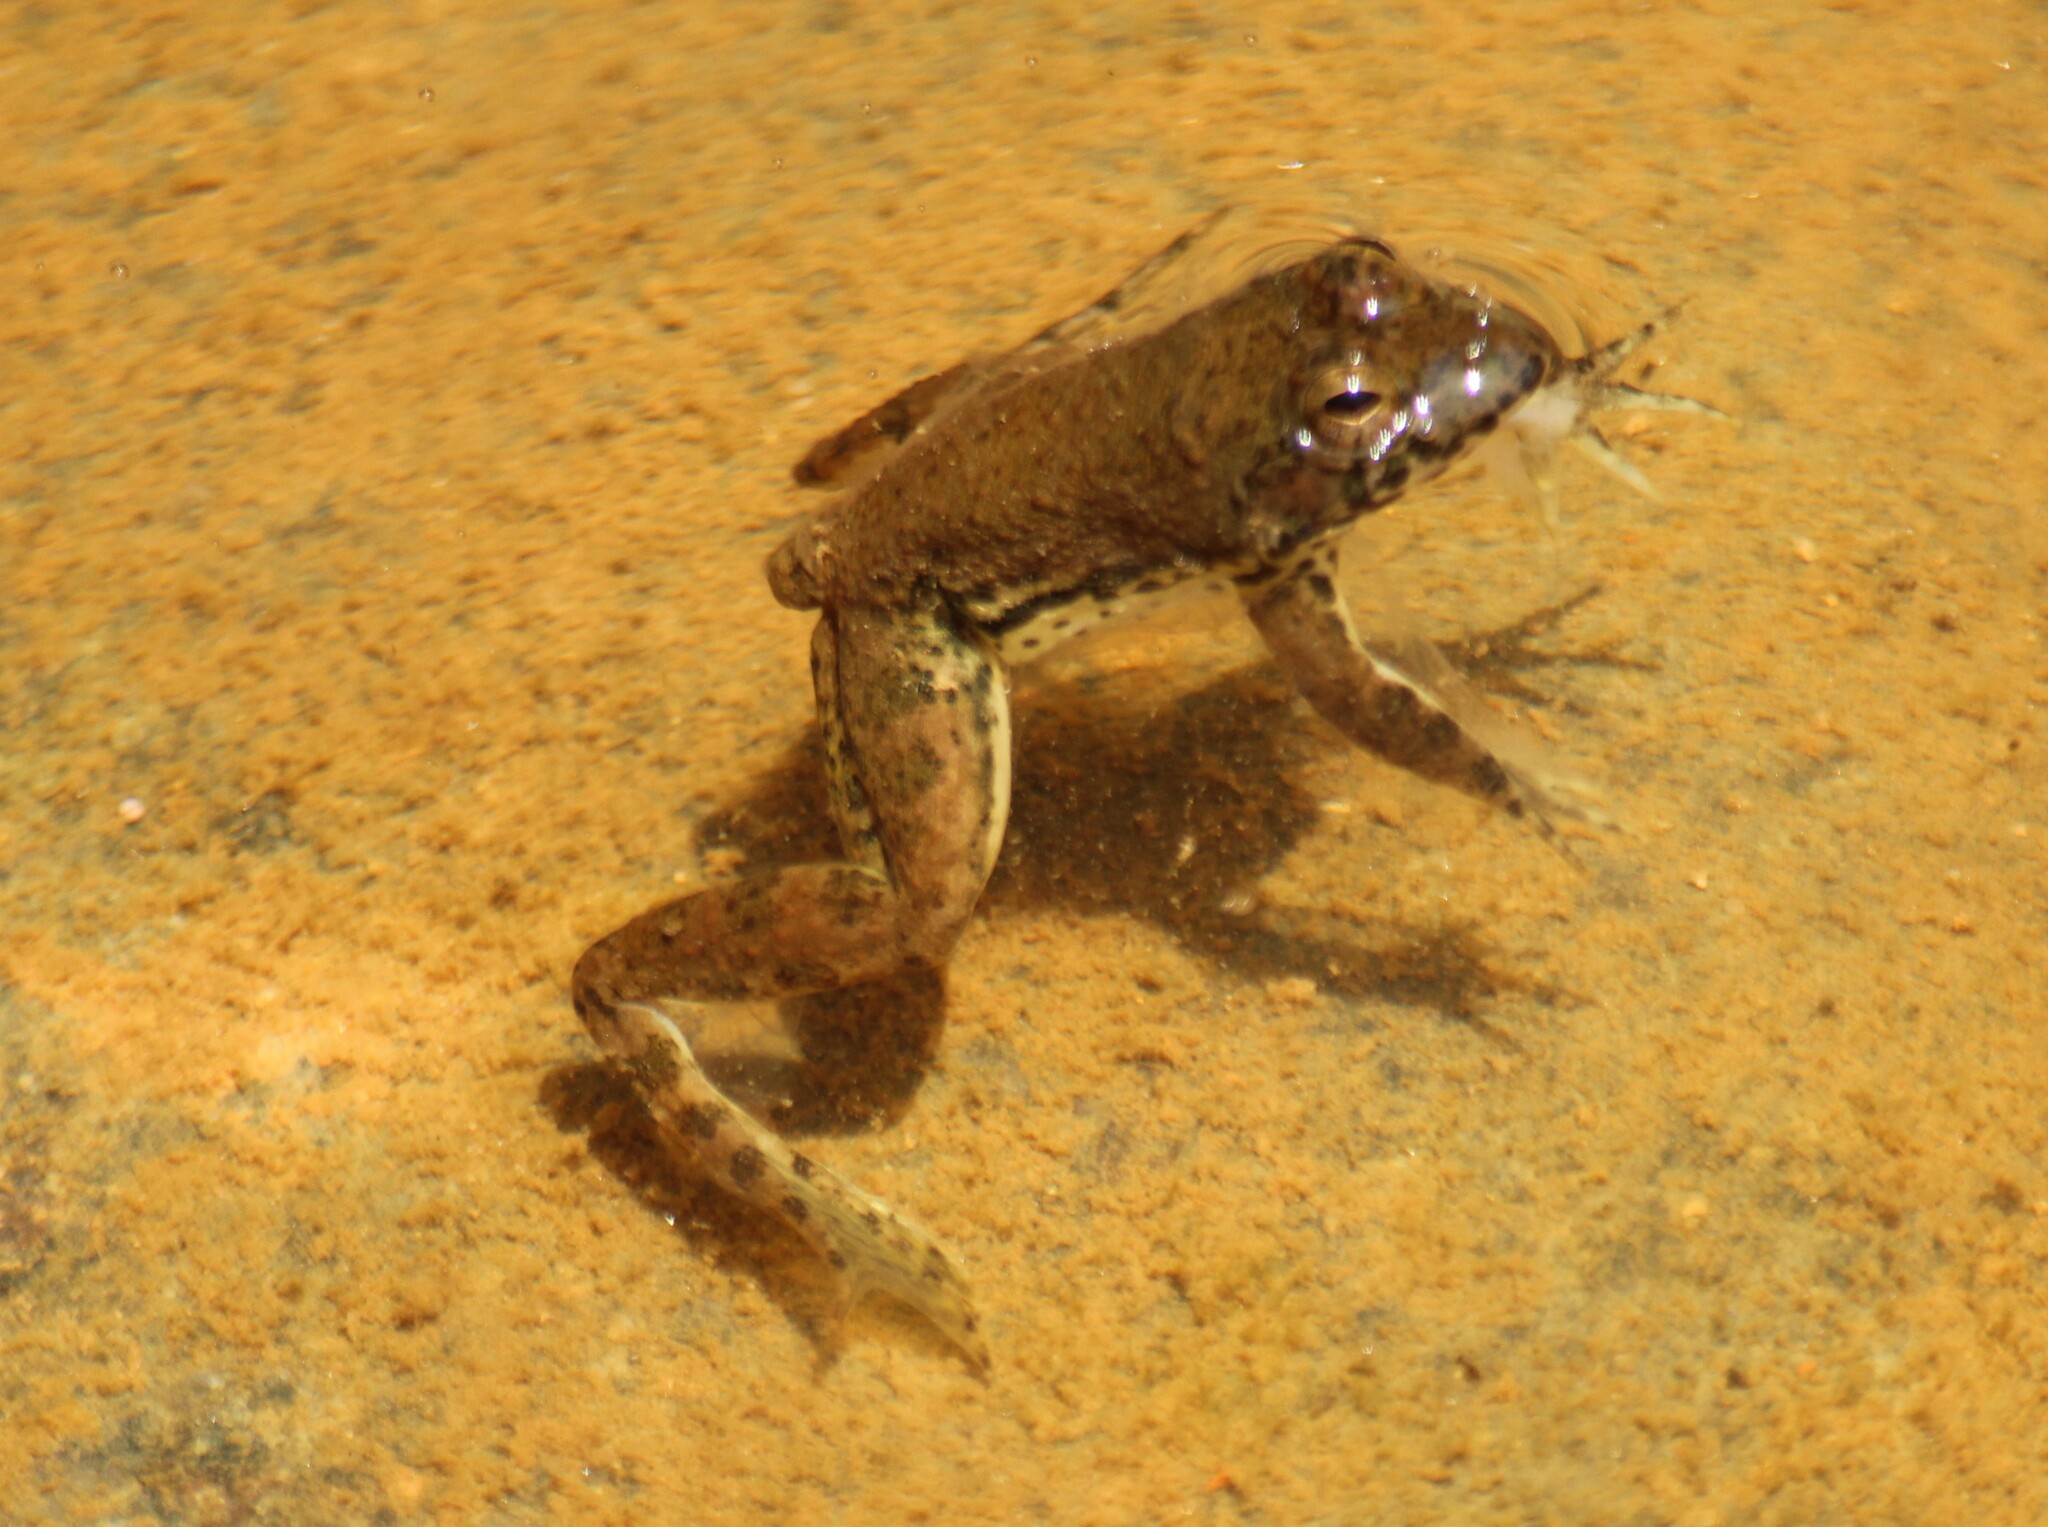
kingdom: Animalia
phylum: Chordata
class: Amphibia
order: Anura
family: Dicroglossidae
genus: Euphlyctis
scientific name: Euphlyctis cyanophlyctis
